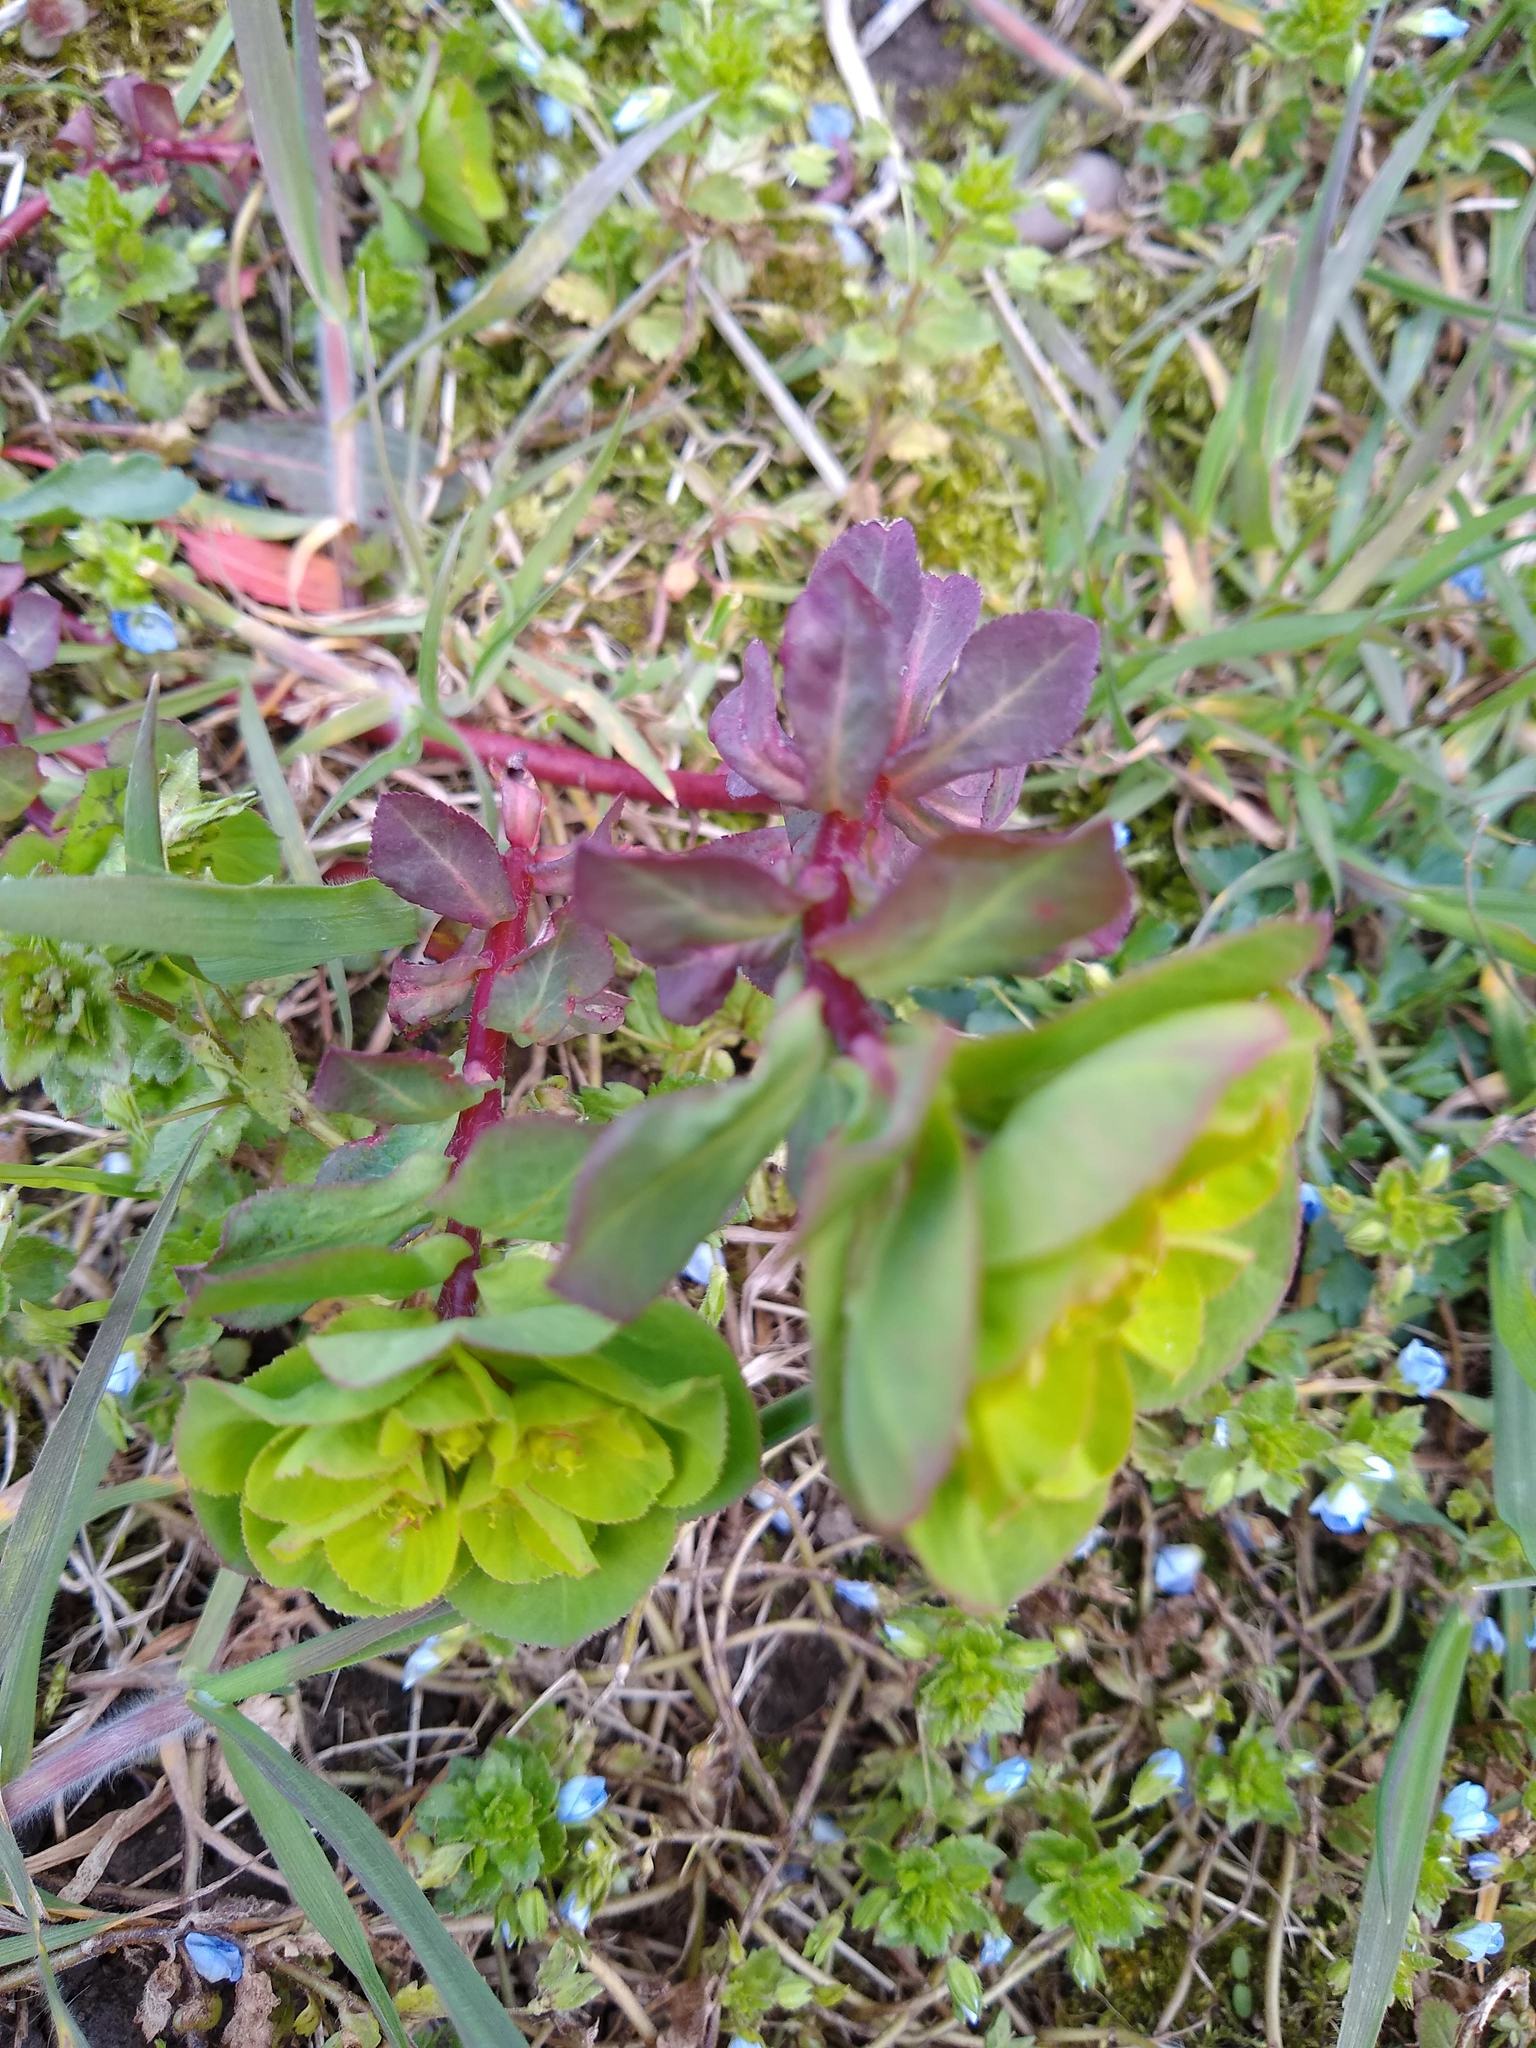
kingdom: Plantae
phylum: Tracheophyta
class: Magnoliopsida
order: Malpighiales
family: Euphorbiaceae
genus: Euphorbia
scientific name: Euphorbia helioscopia
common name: Sun spurge
